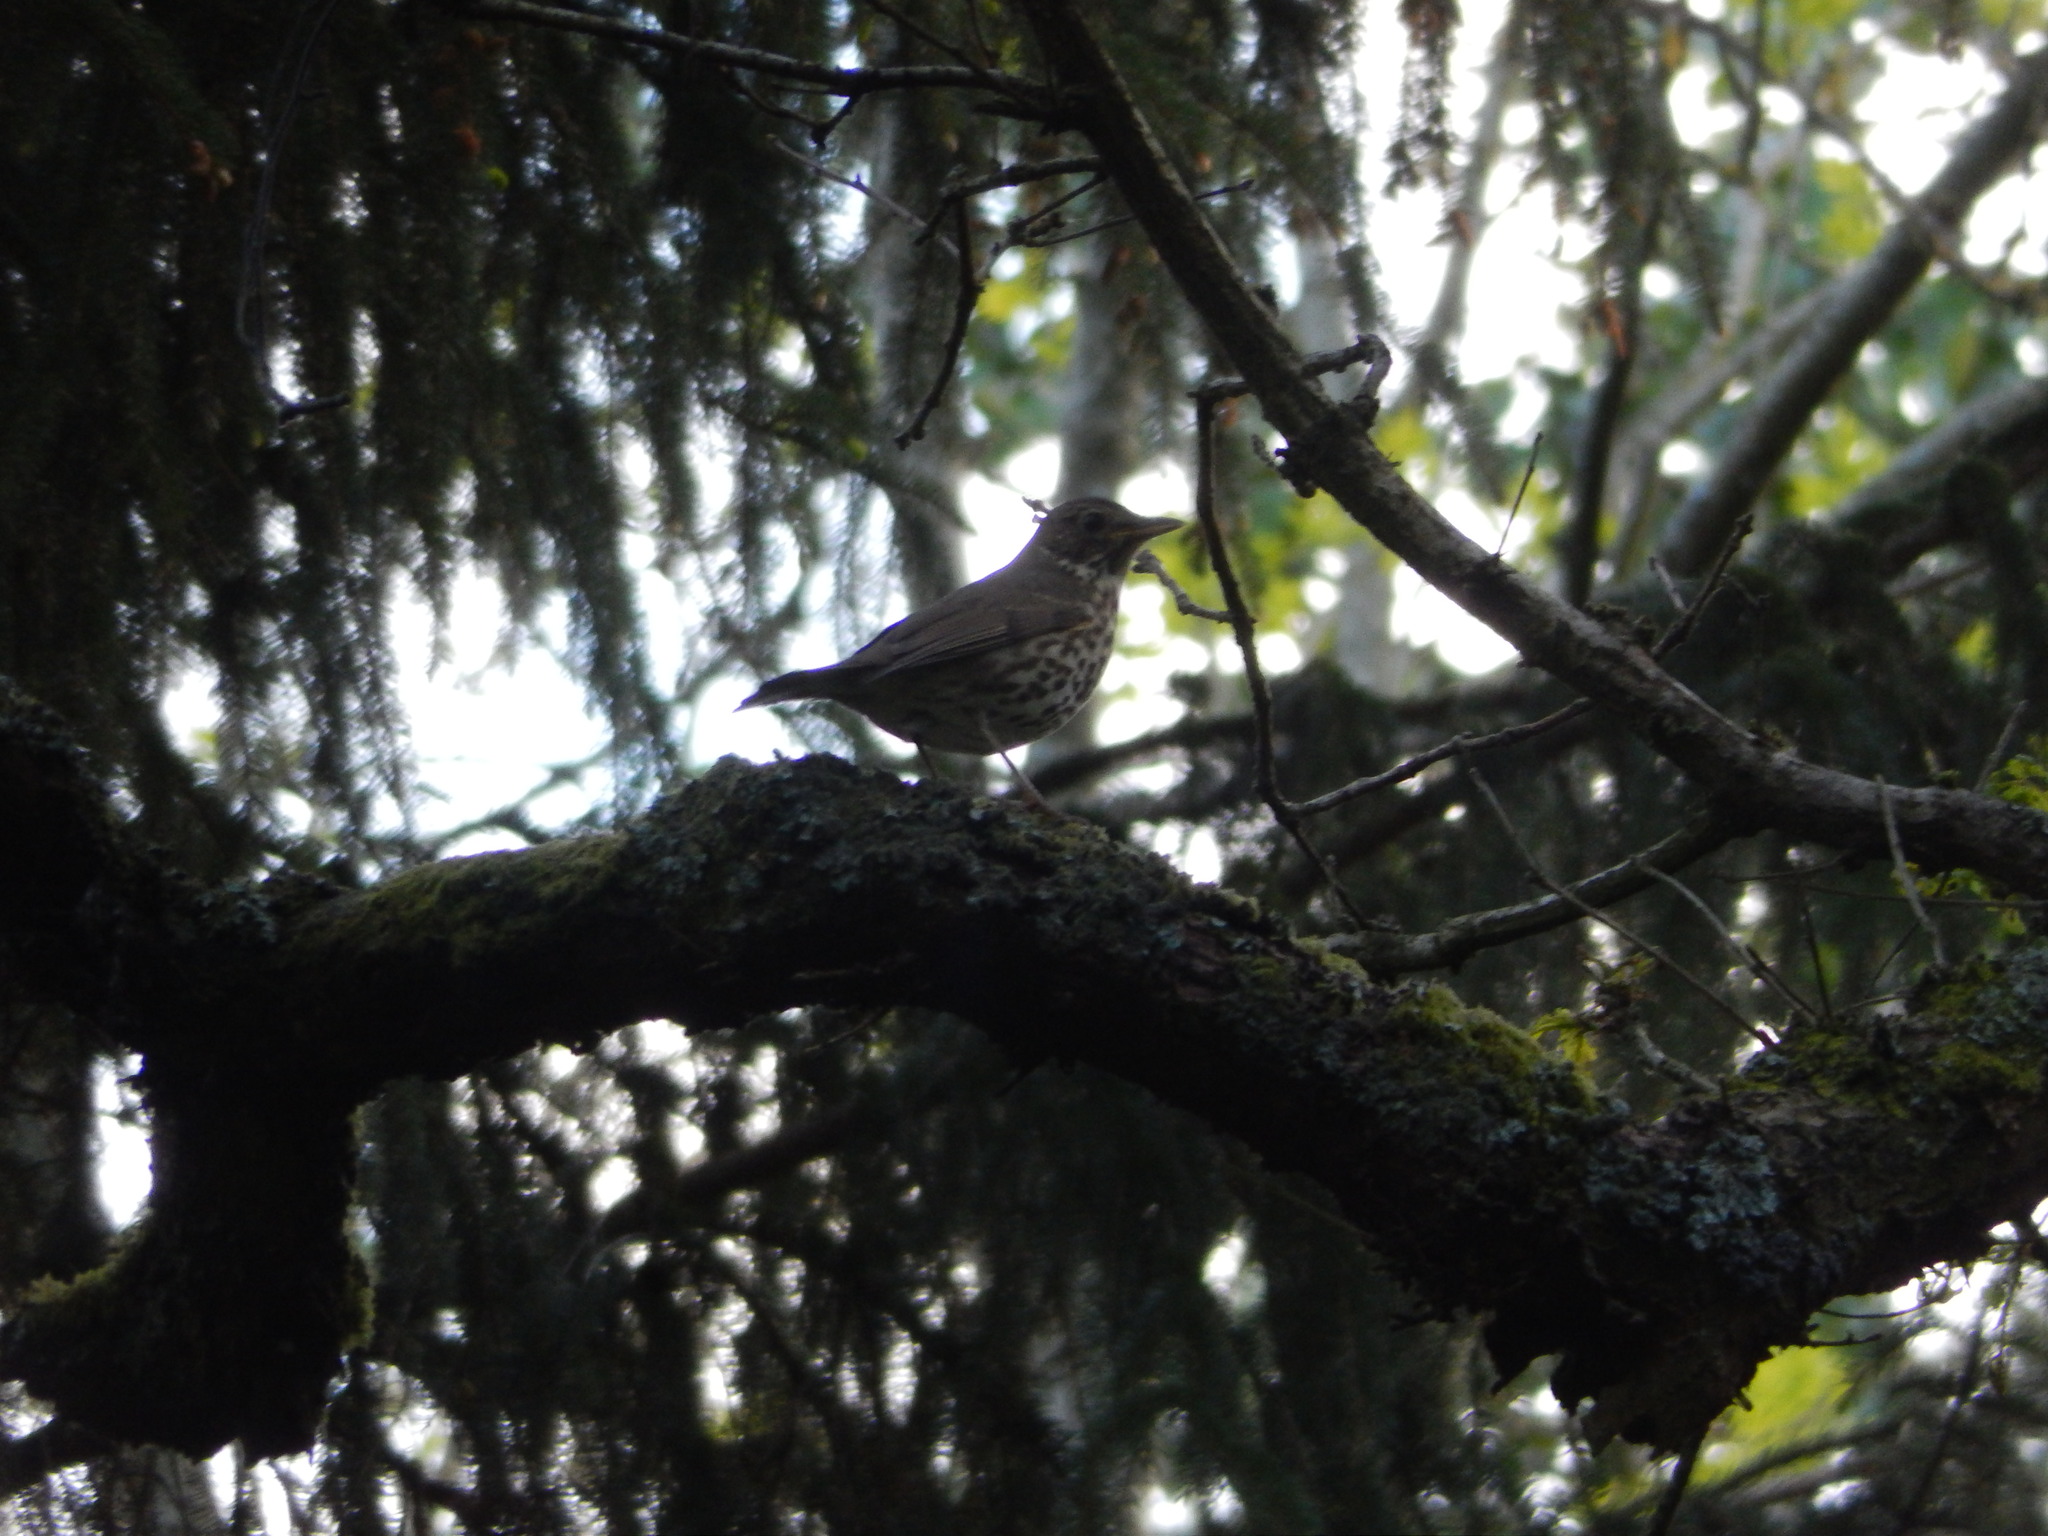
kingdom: Animalia
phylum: Chordata
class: Aves
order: Passeriformes
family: Turdidae
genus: Turdus
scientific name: Turdus philomelos
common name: Song thrush
